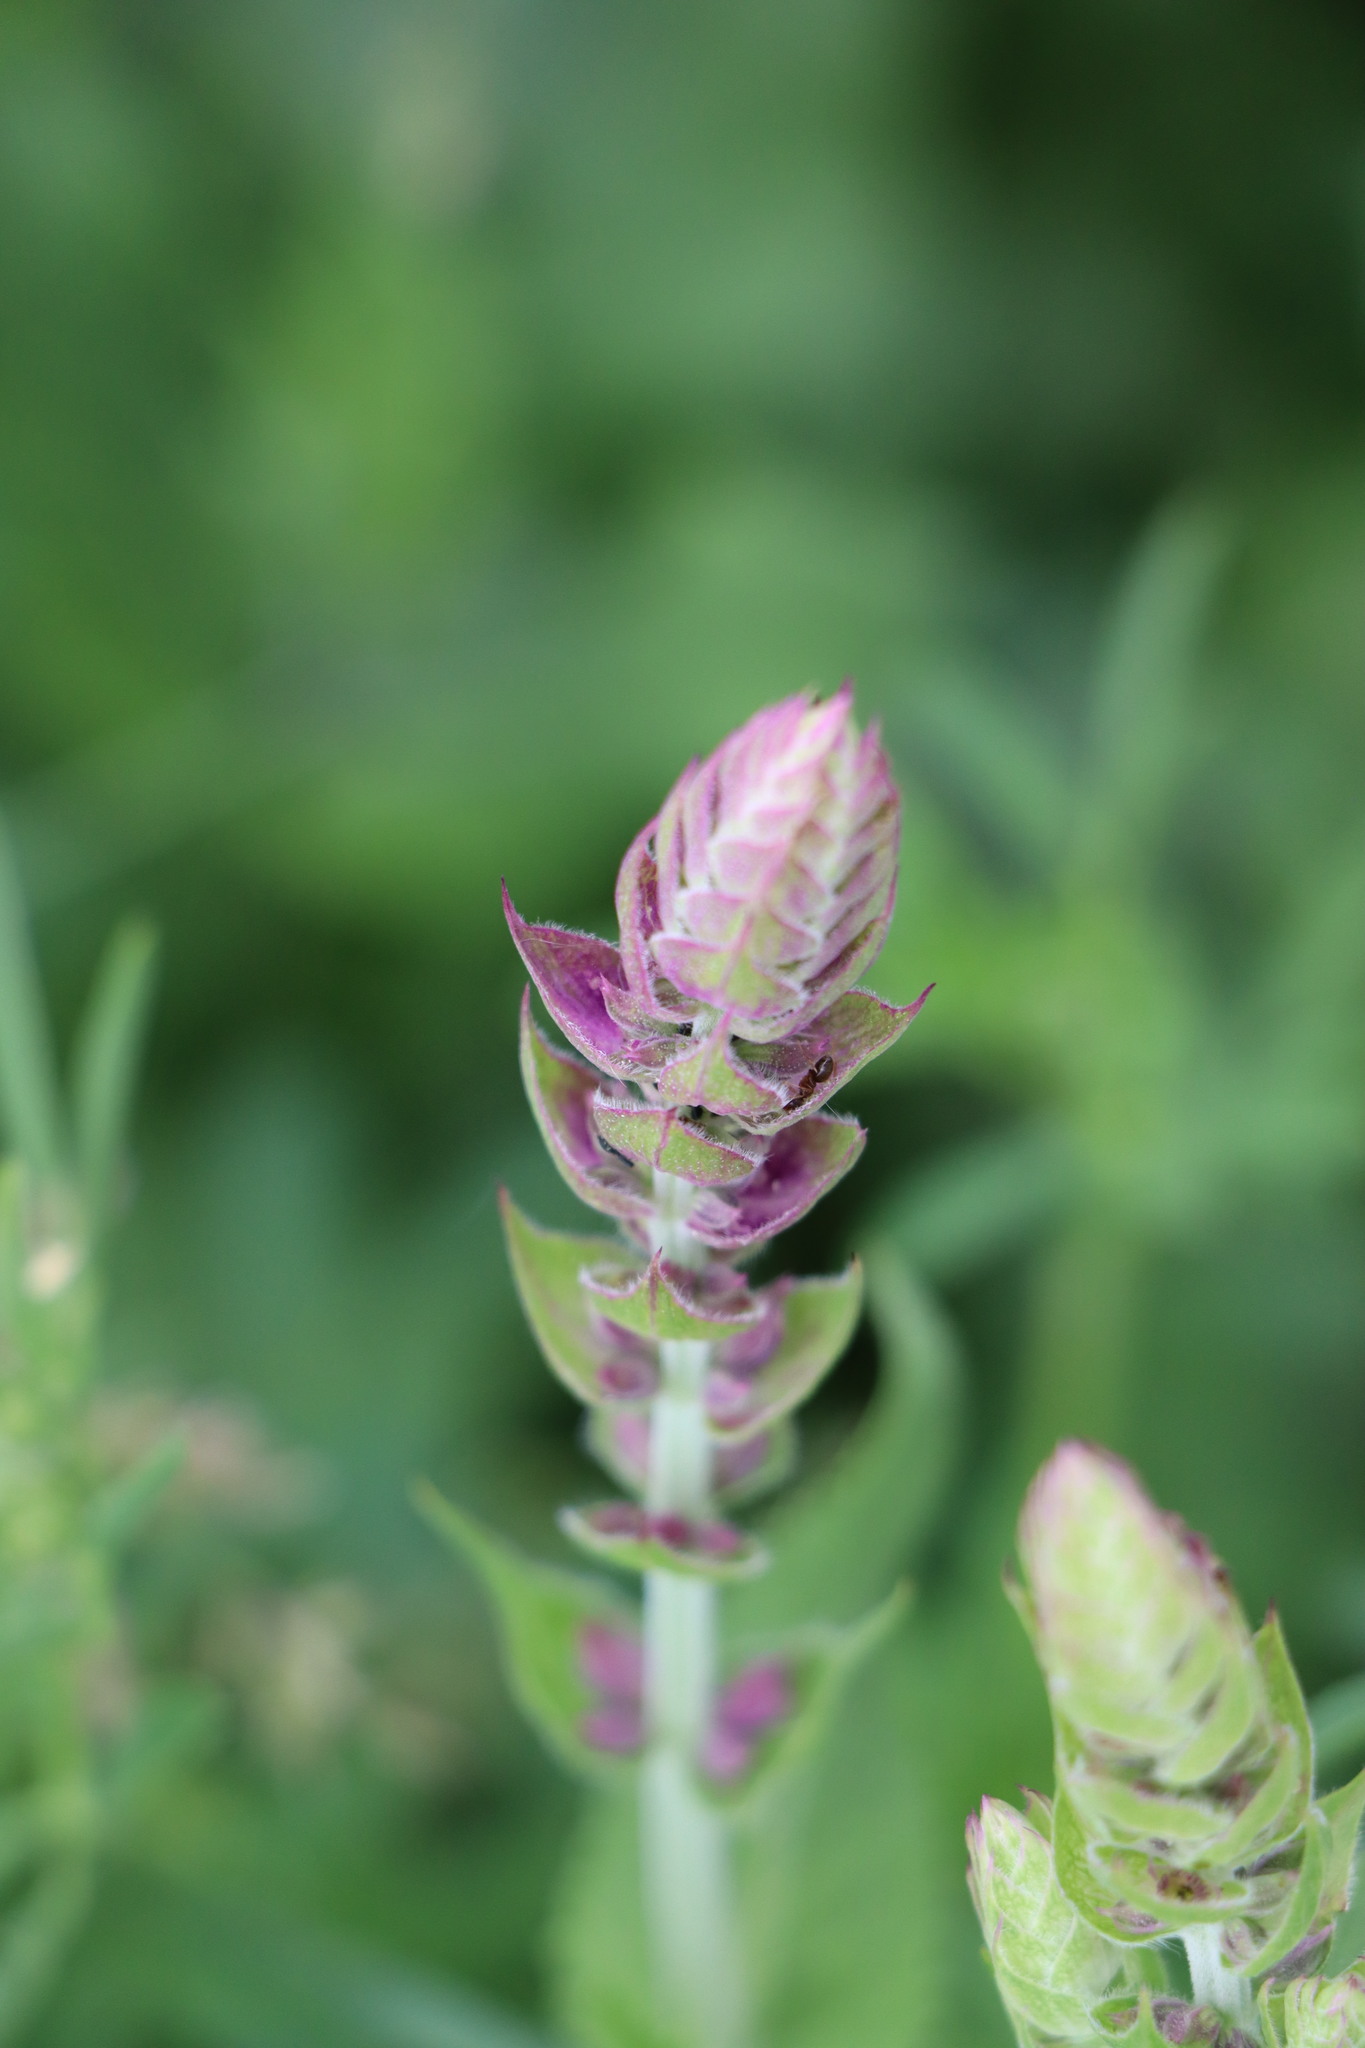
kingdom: Plantae
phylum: Tracheophyta
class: Magnoliopsida
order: Lamiales
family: Lamiaceae
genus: Salvia
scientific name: Salvia nemorosa
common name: Balkan clary
